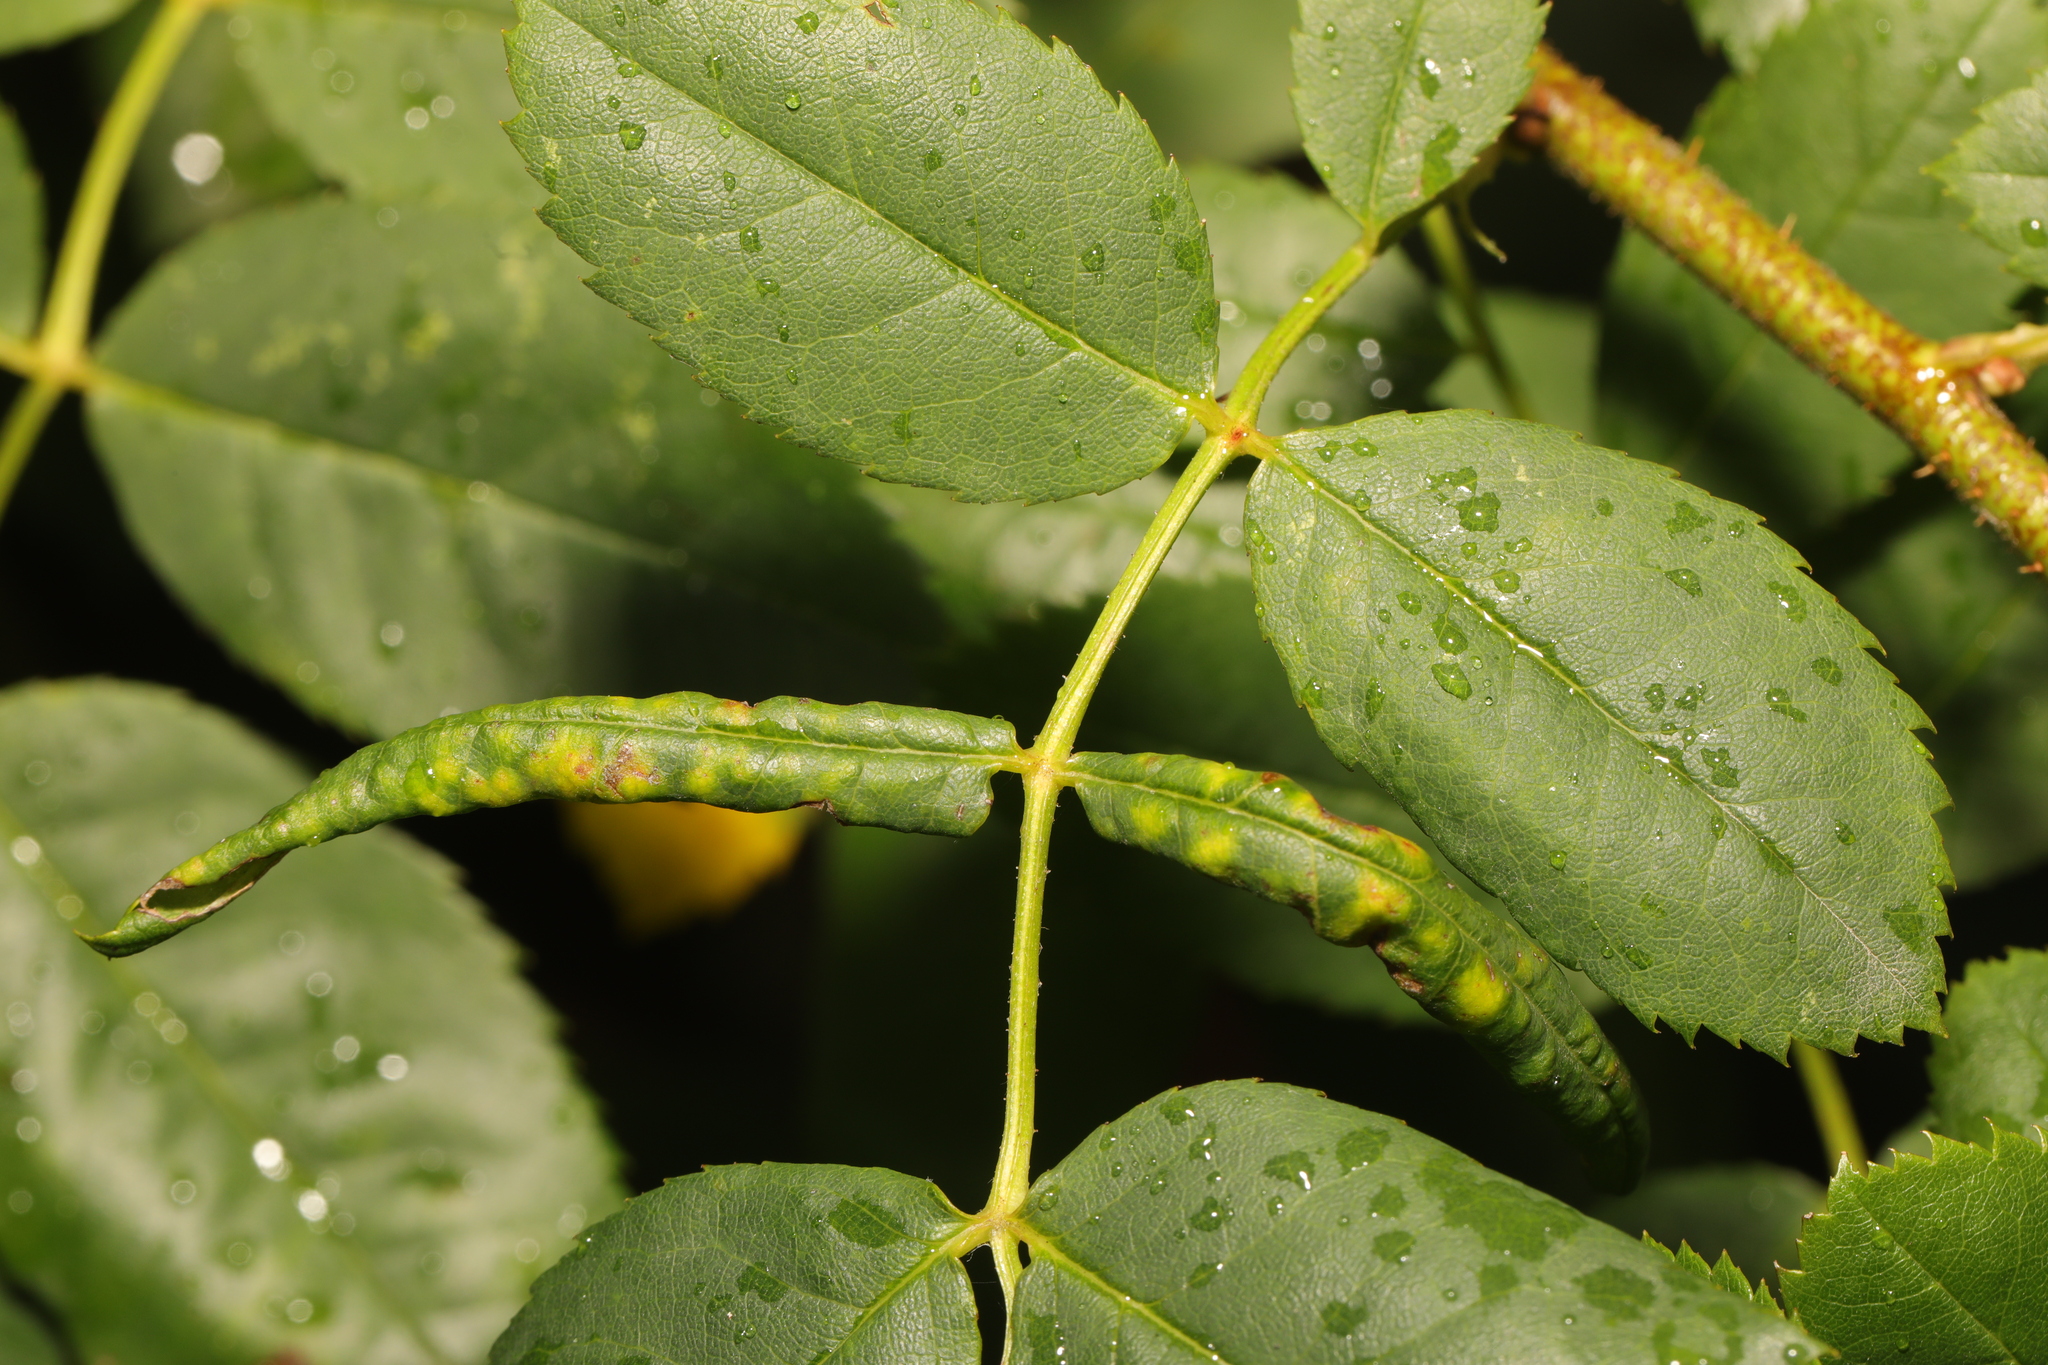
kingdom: Animalia
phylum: Arthropoda
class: Insecta
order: Hymenoptera
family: Tenthredinidae
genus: Blennocampa
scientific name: Blennocampa phyllocolpa
